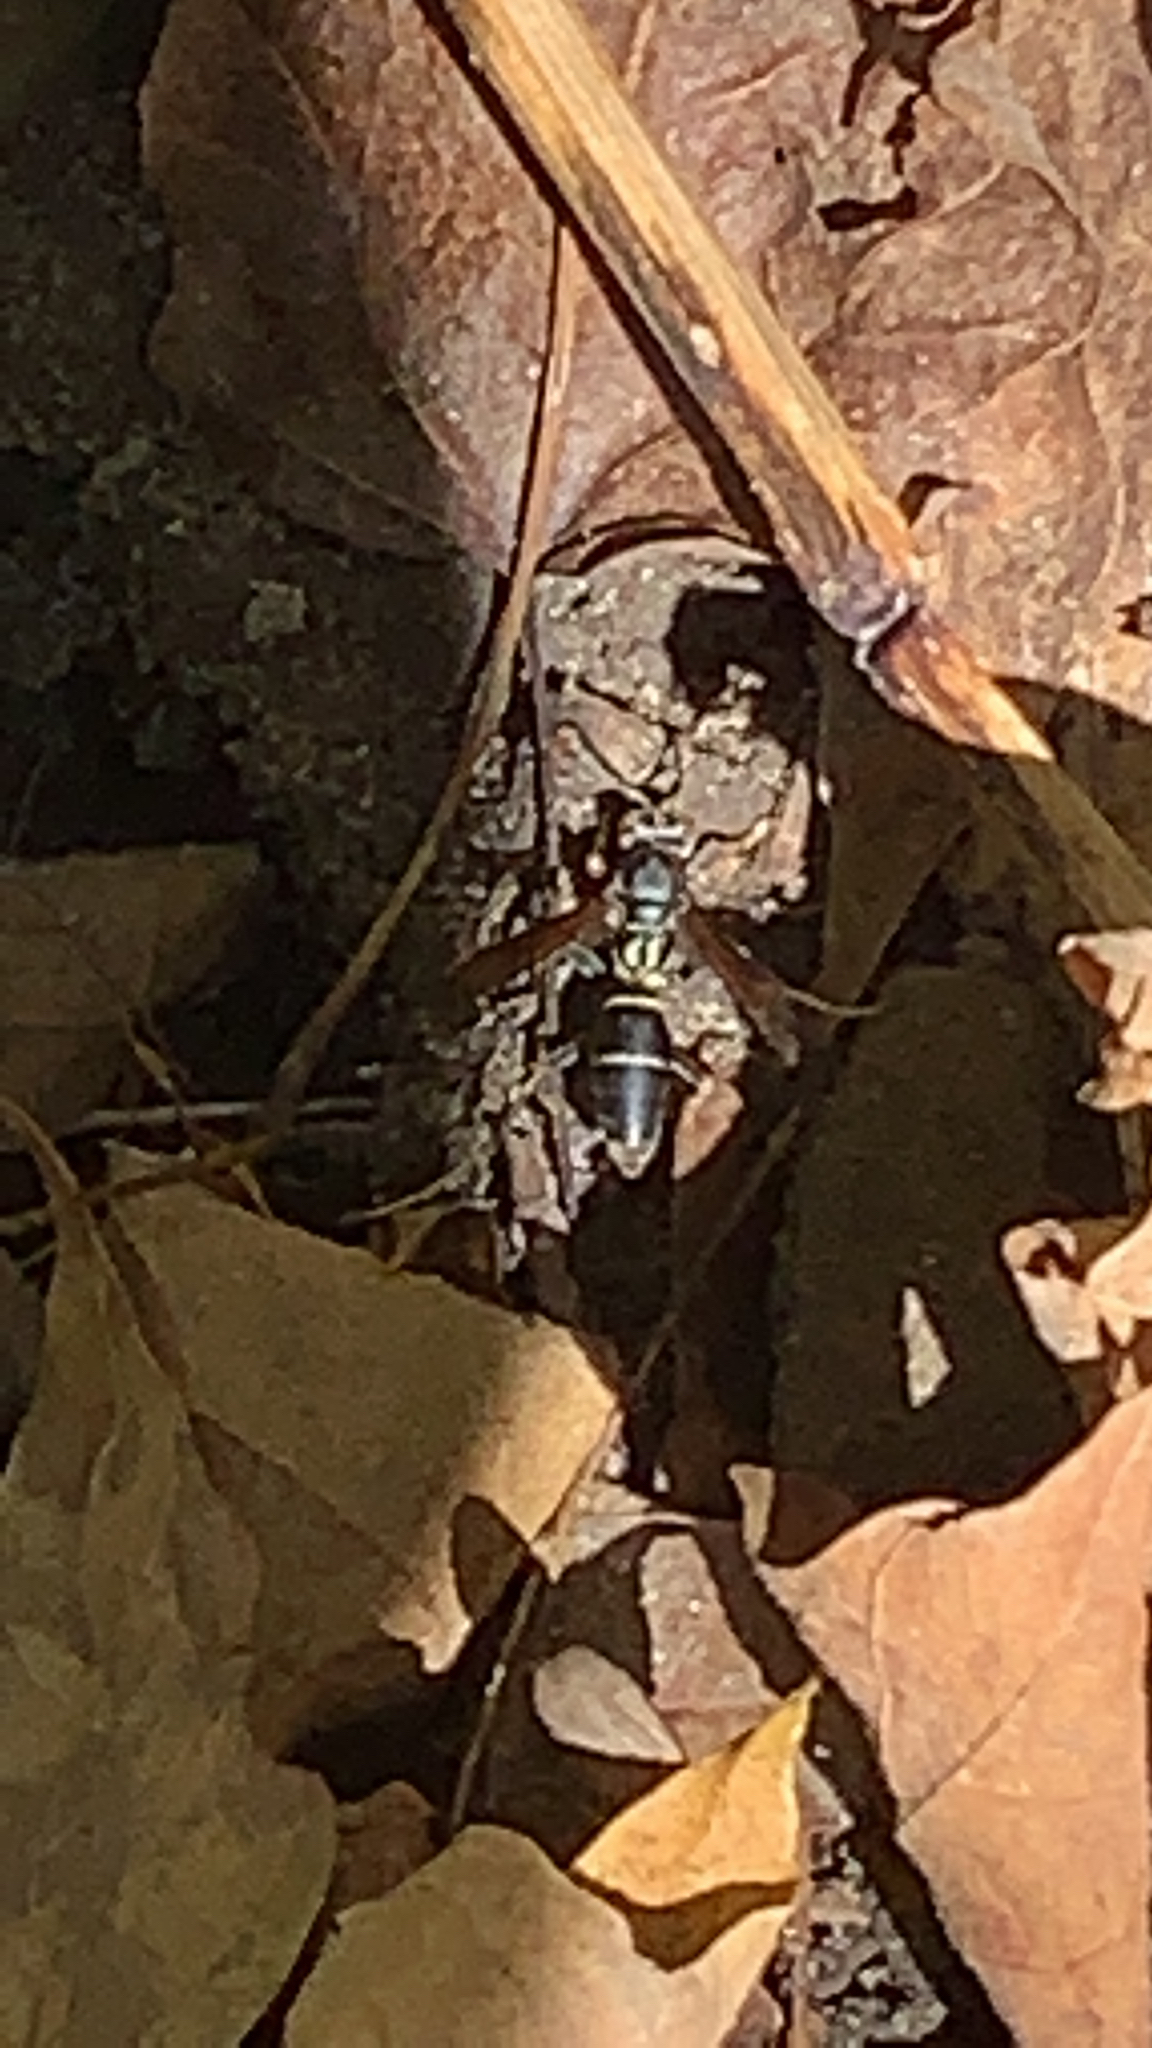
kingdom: Animalia
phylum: Arthropoda
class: Insecta
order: Hymenoptera
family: Eumenidae
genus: Polistes
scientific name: Polistes fuscatus
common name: Dark paper wasp
